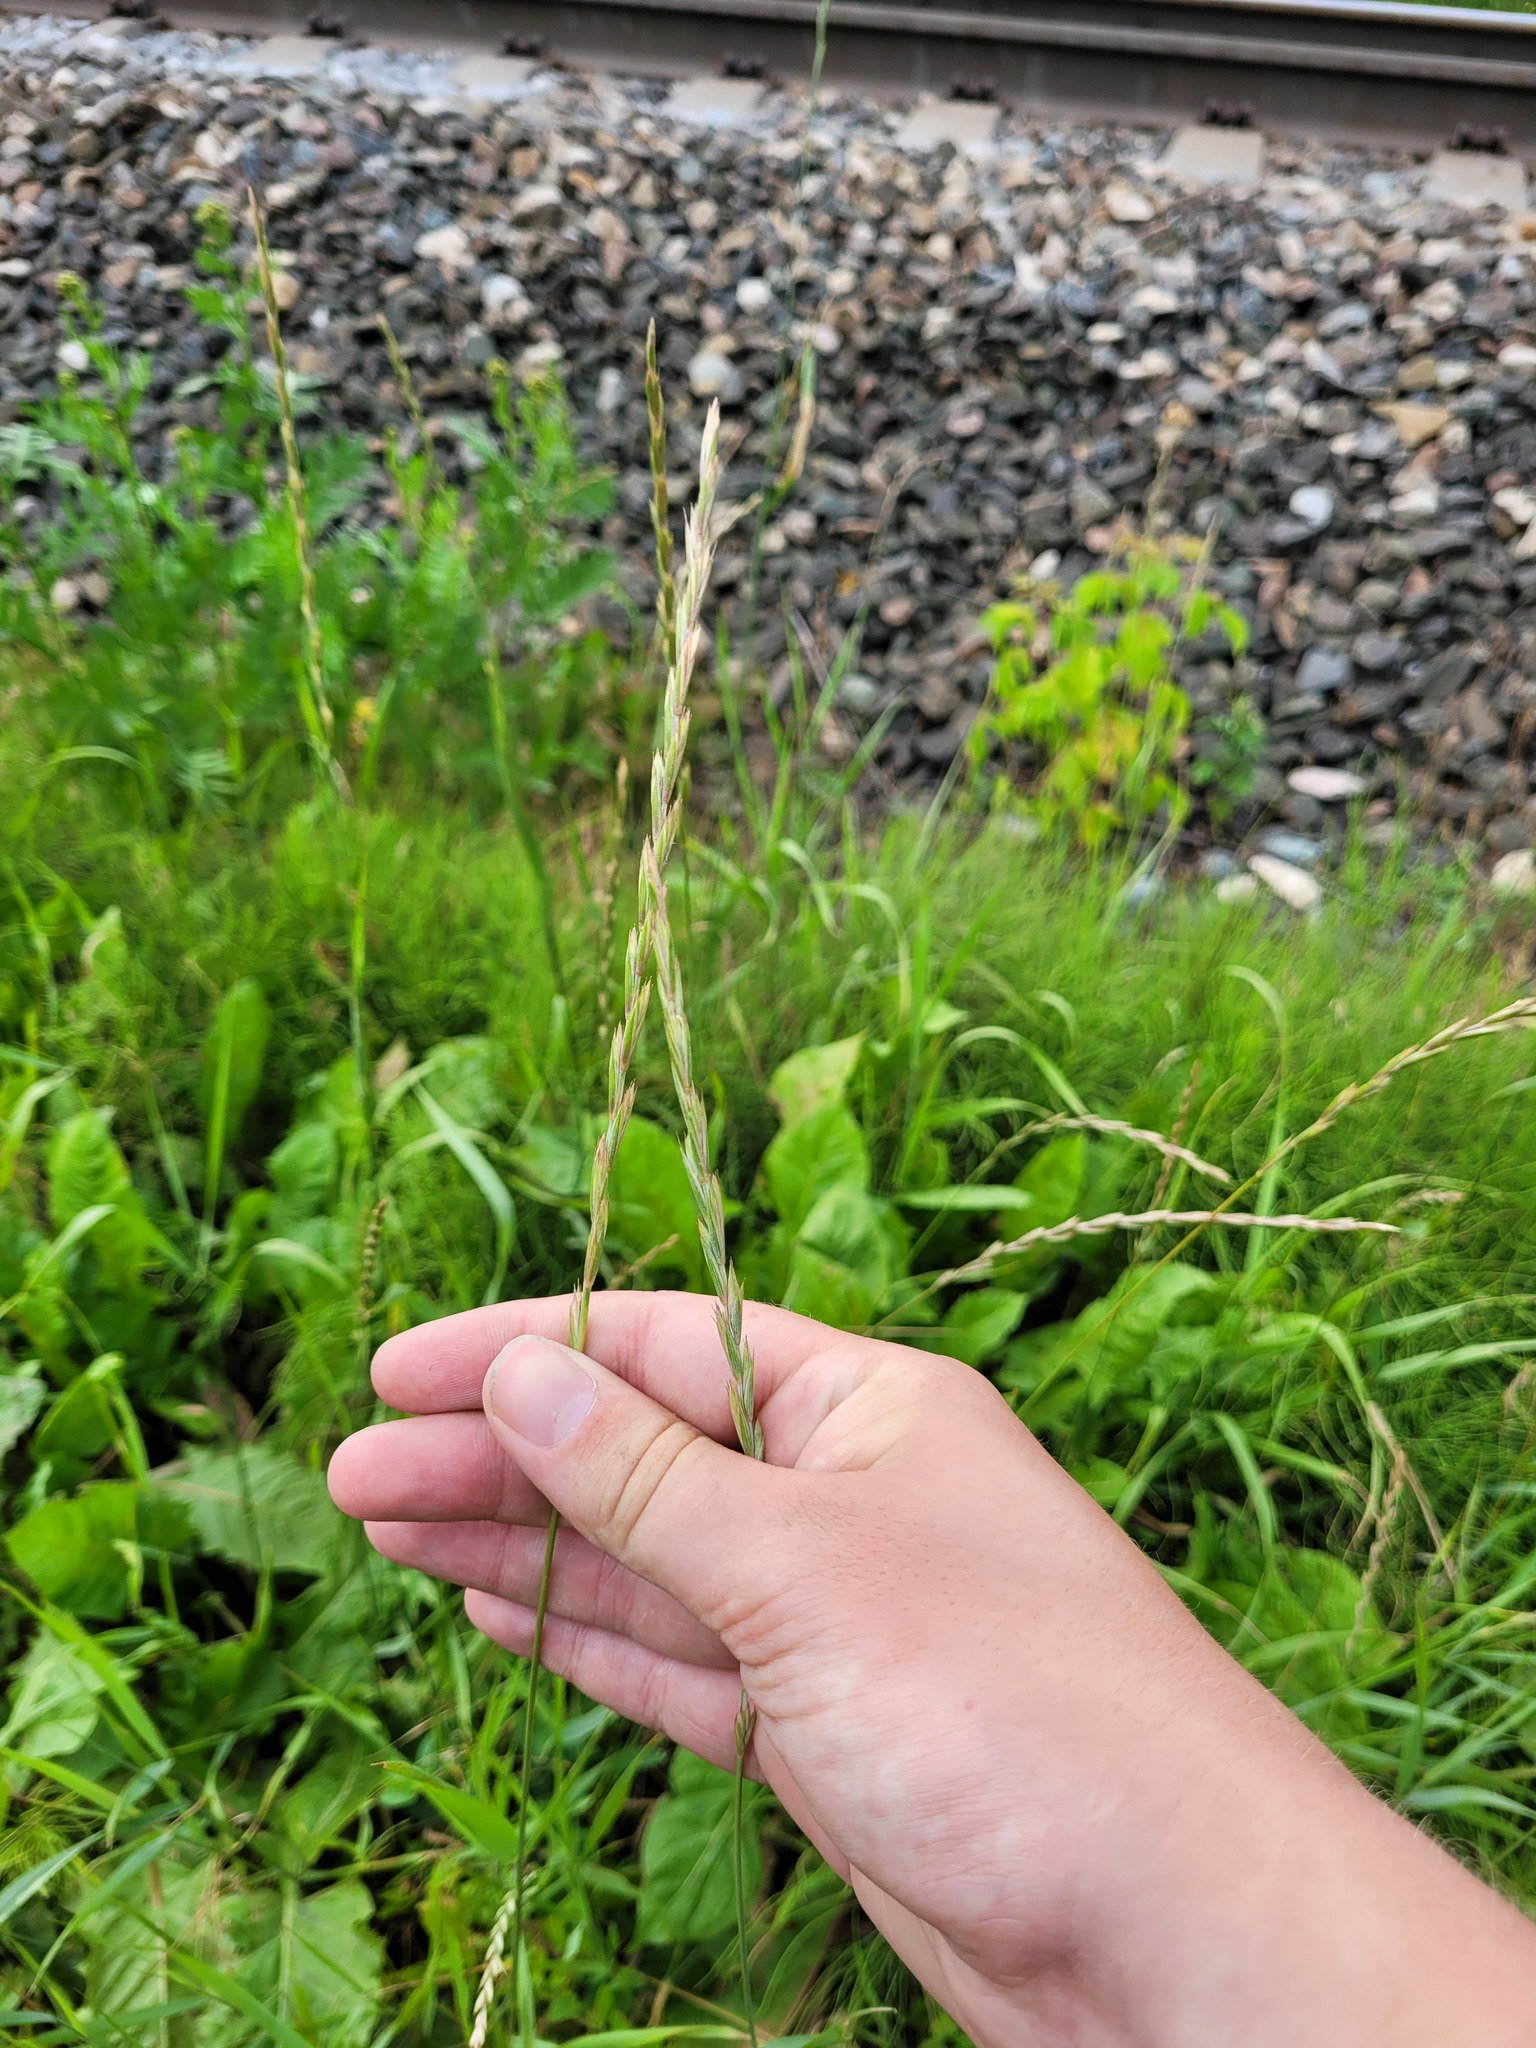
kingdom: Plantae
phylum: Tracheophyta
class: Liliopsida
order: Poales
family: Poaceae
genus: Elymus
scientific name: Elymus repens
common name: Quackgrass
